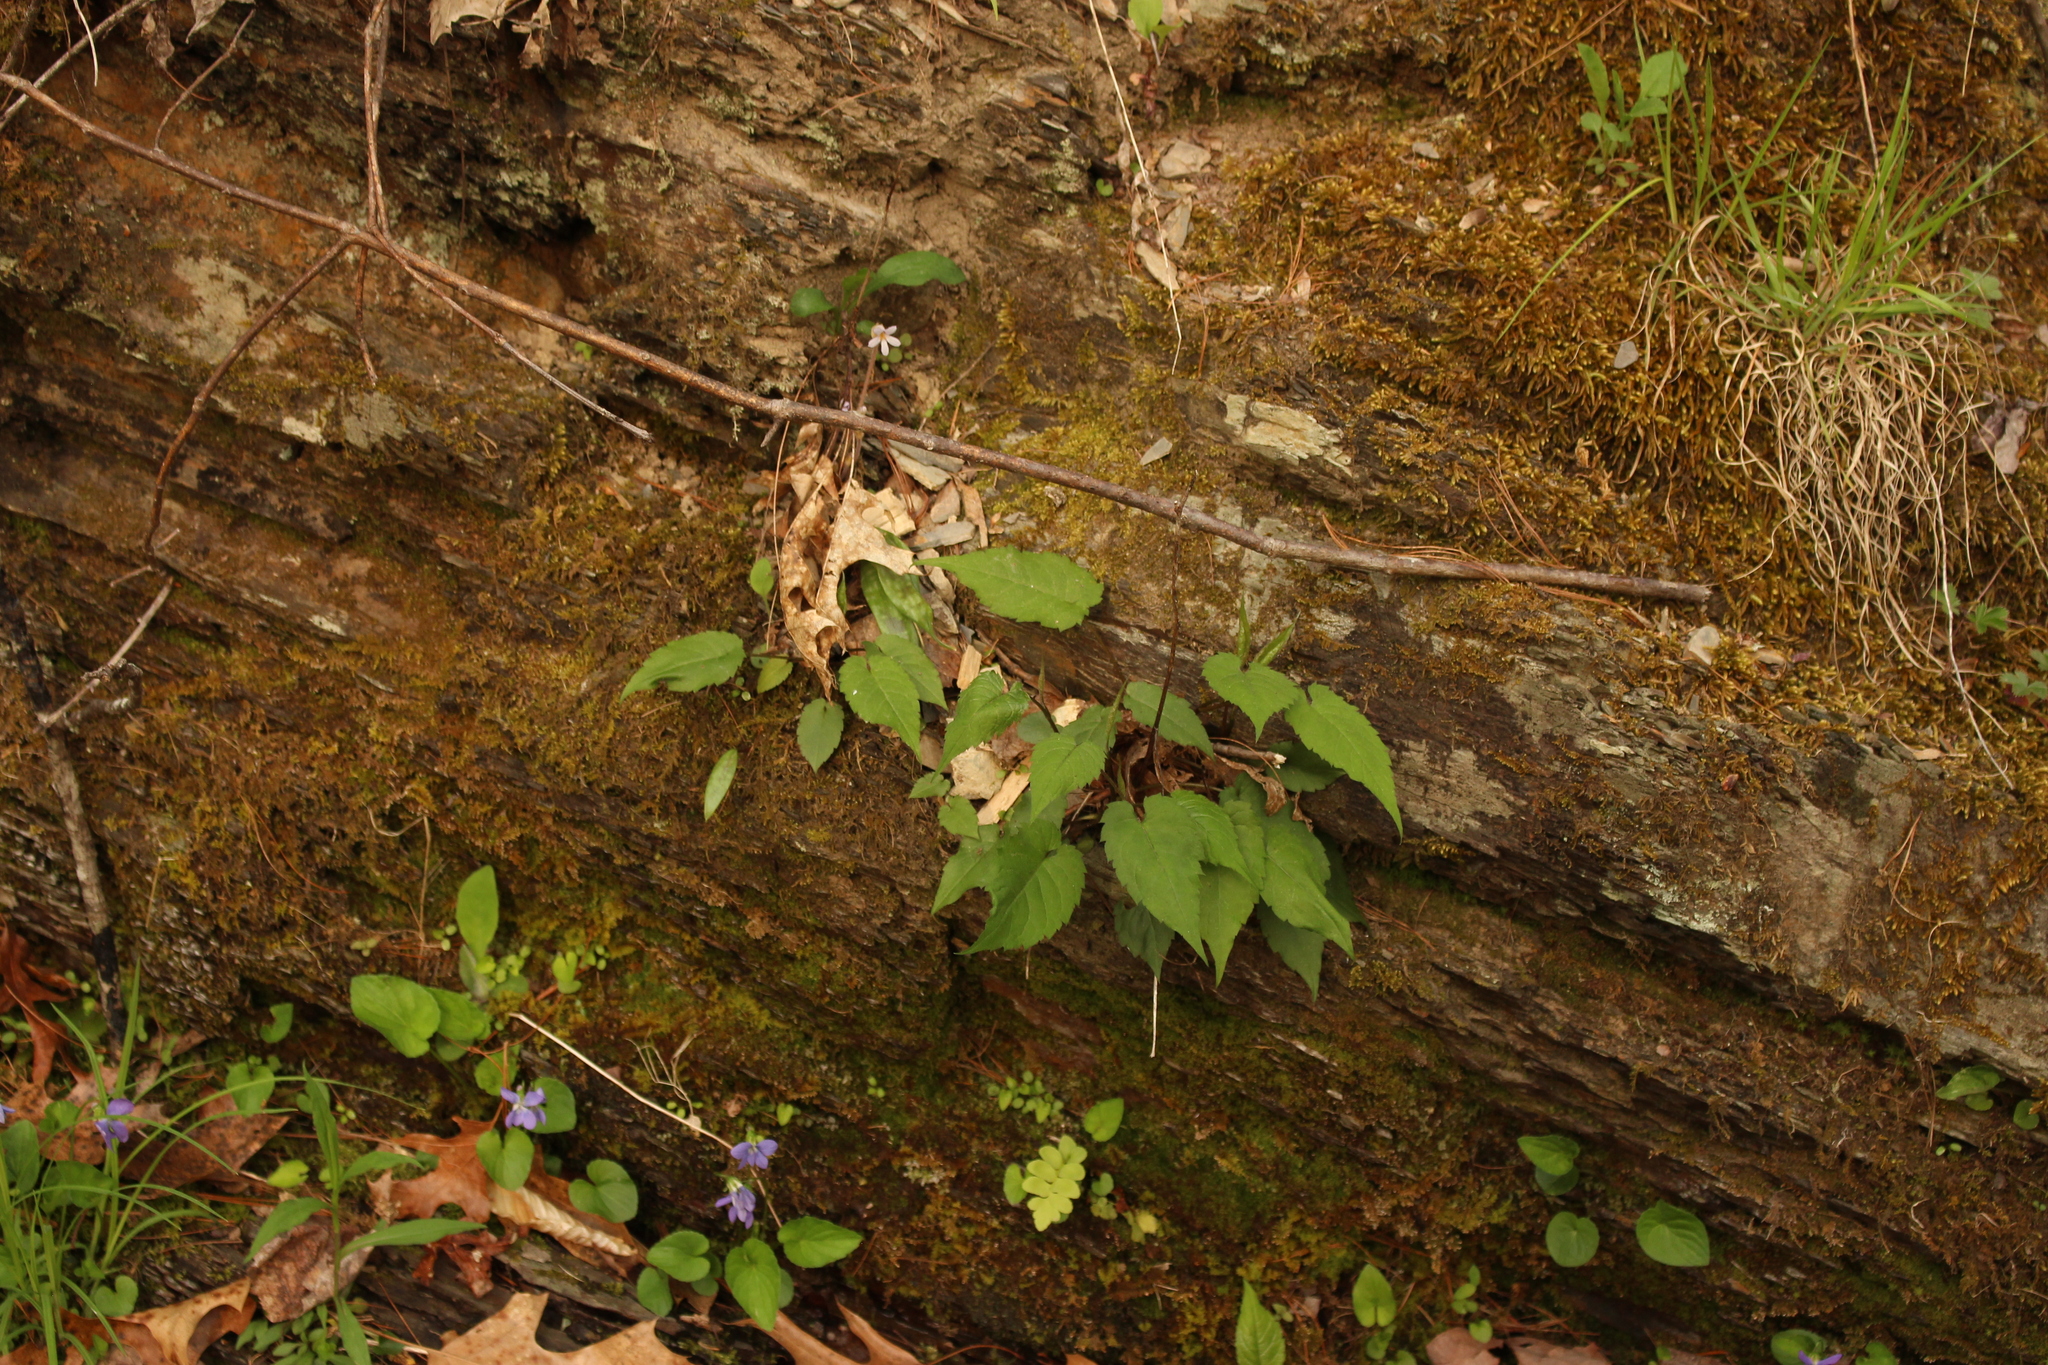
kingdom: Plantae
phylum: Tracheophyta
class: Magnoliopsida
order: Lamiales
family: Orobanchaceae
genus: Aphyllon
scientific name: Aphyllon uniflorum
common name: One-flowered broomrape
